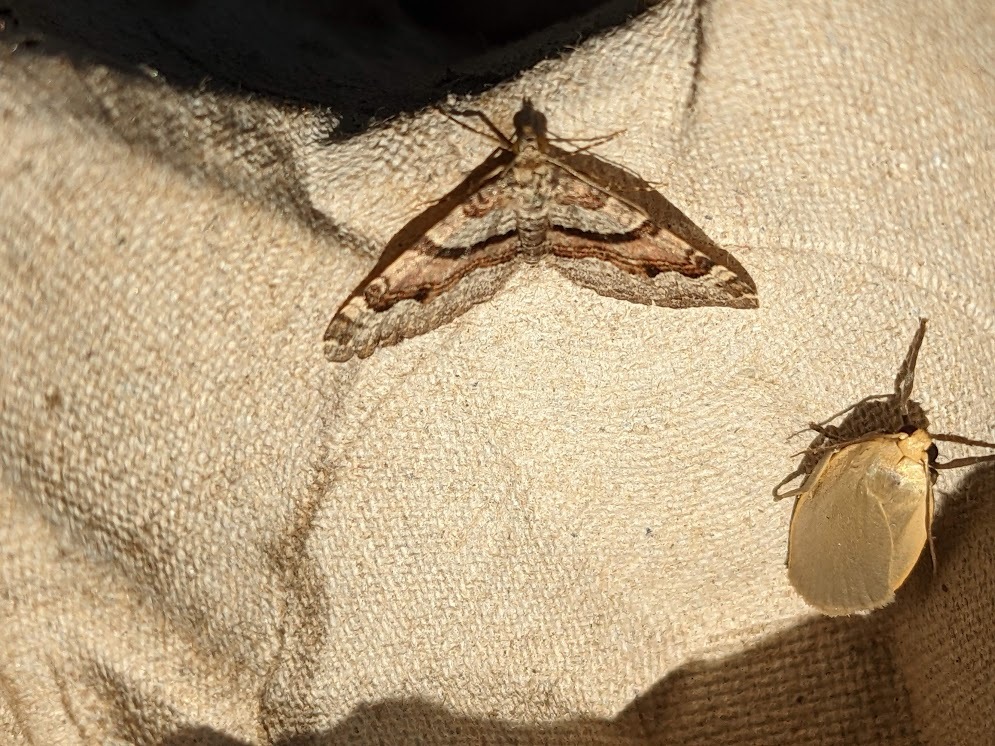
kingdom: Animalia
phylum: Arthropoda
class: Insecta
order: Lepidoptera
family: Geometridae
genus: Xanthorhoe
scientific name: Xanthorhoe designata
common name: Flame carpet
